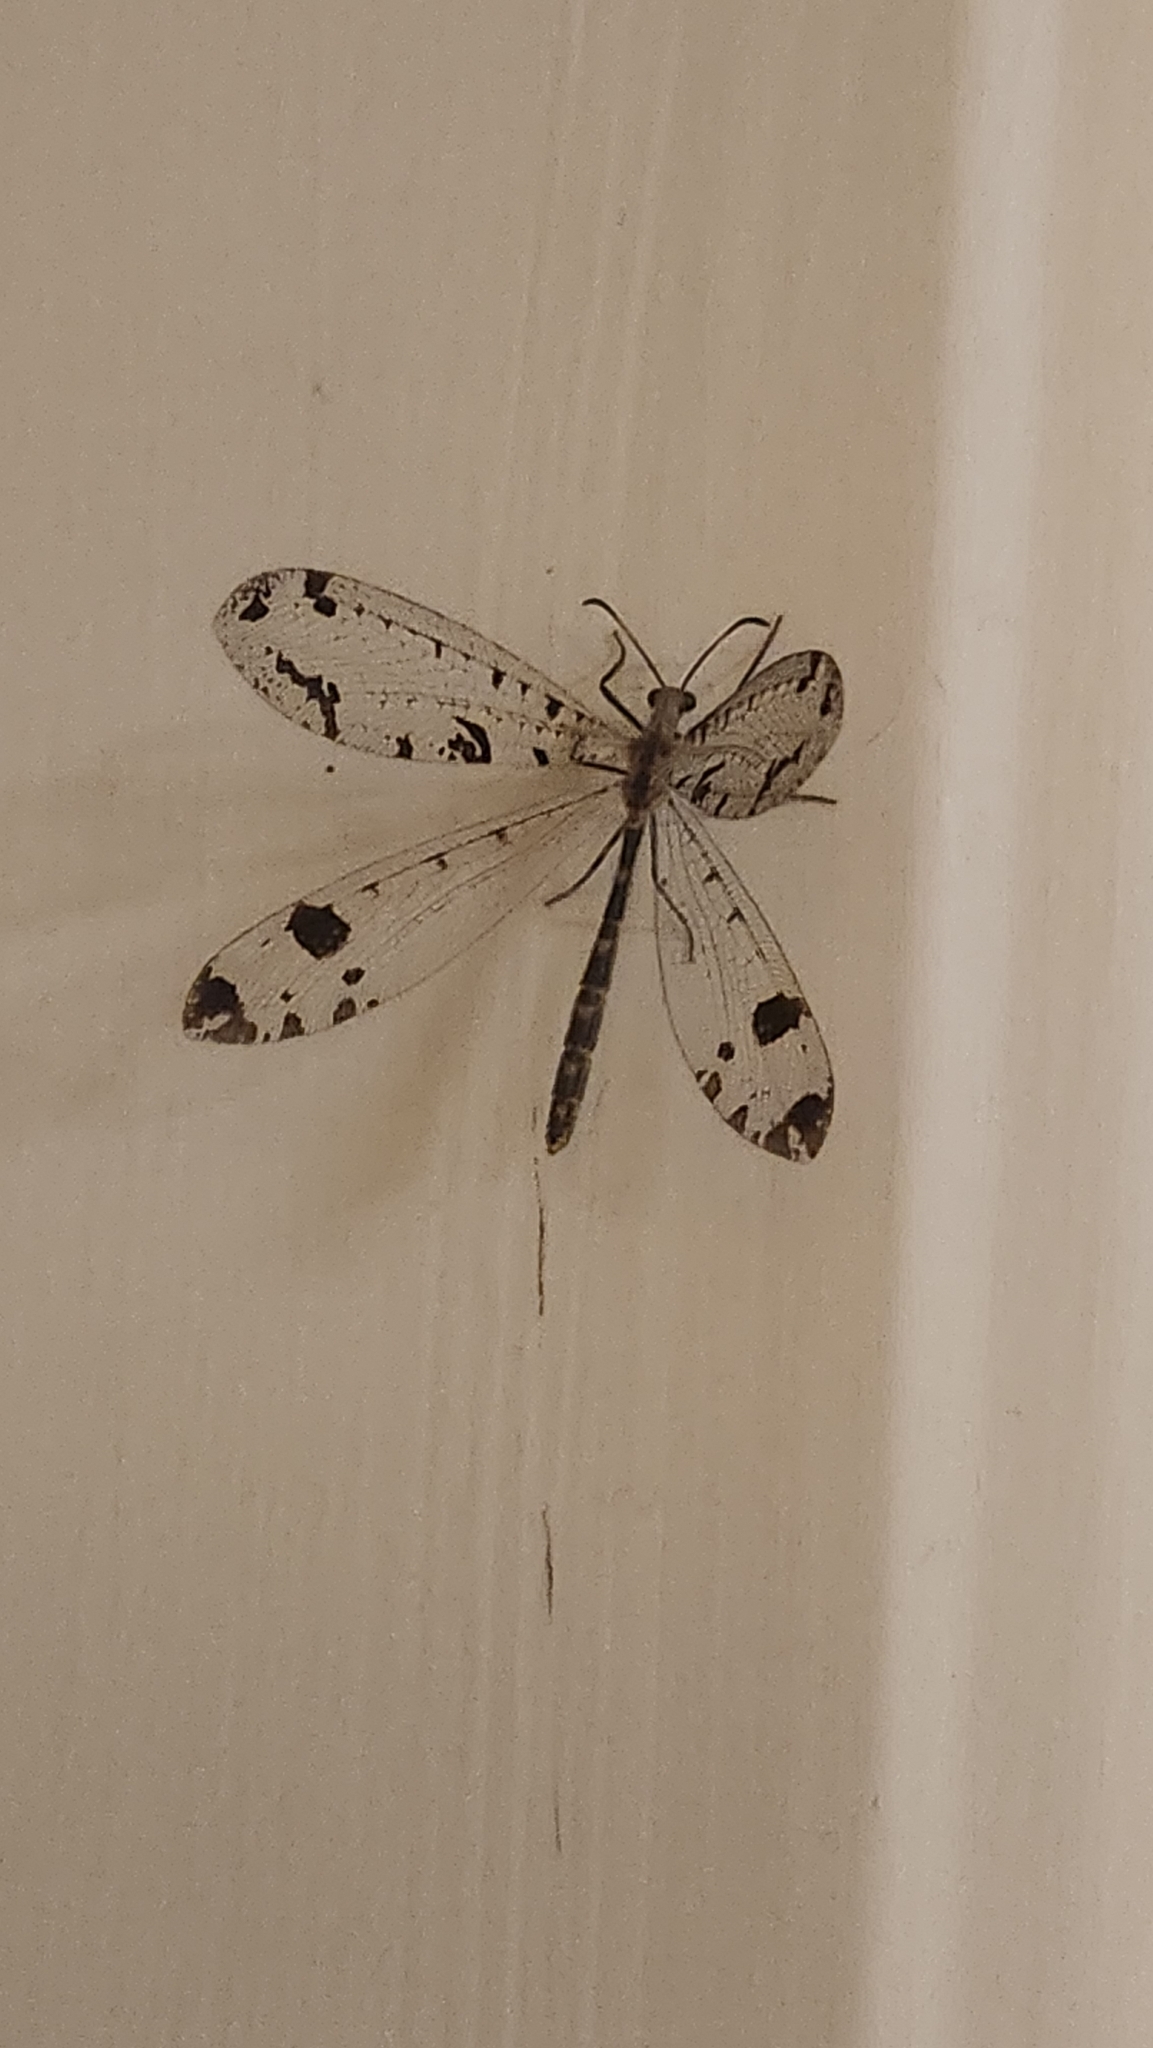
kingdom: Animalia
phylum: Arthropoda
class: Insecta
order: Neuroptera
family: Myrmeleontidae
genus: Dendroleon
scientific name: Dendroleon obsoletus
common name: Eastern spotted-winged antlion
